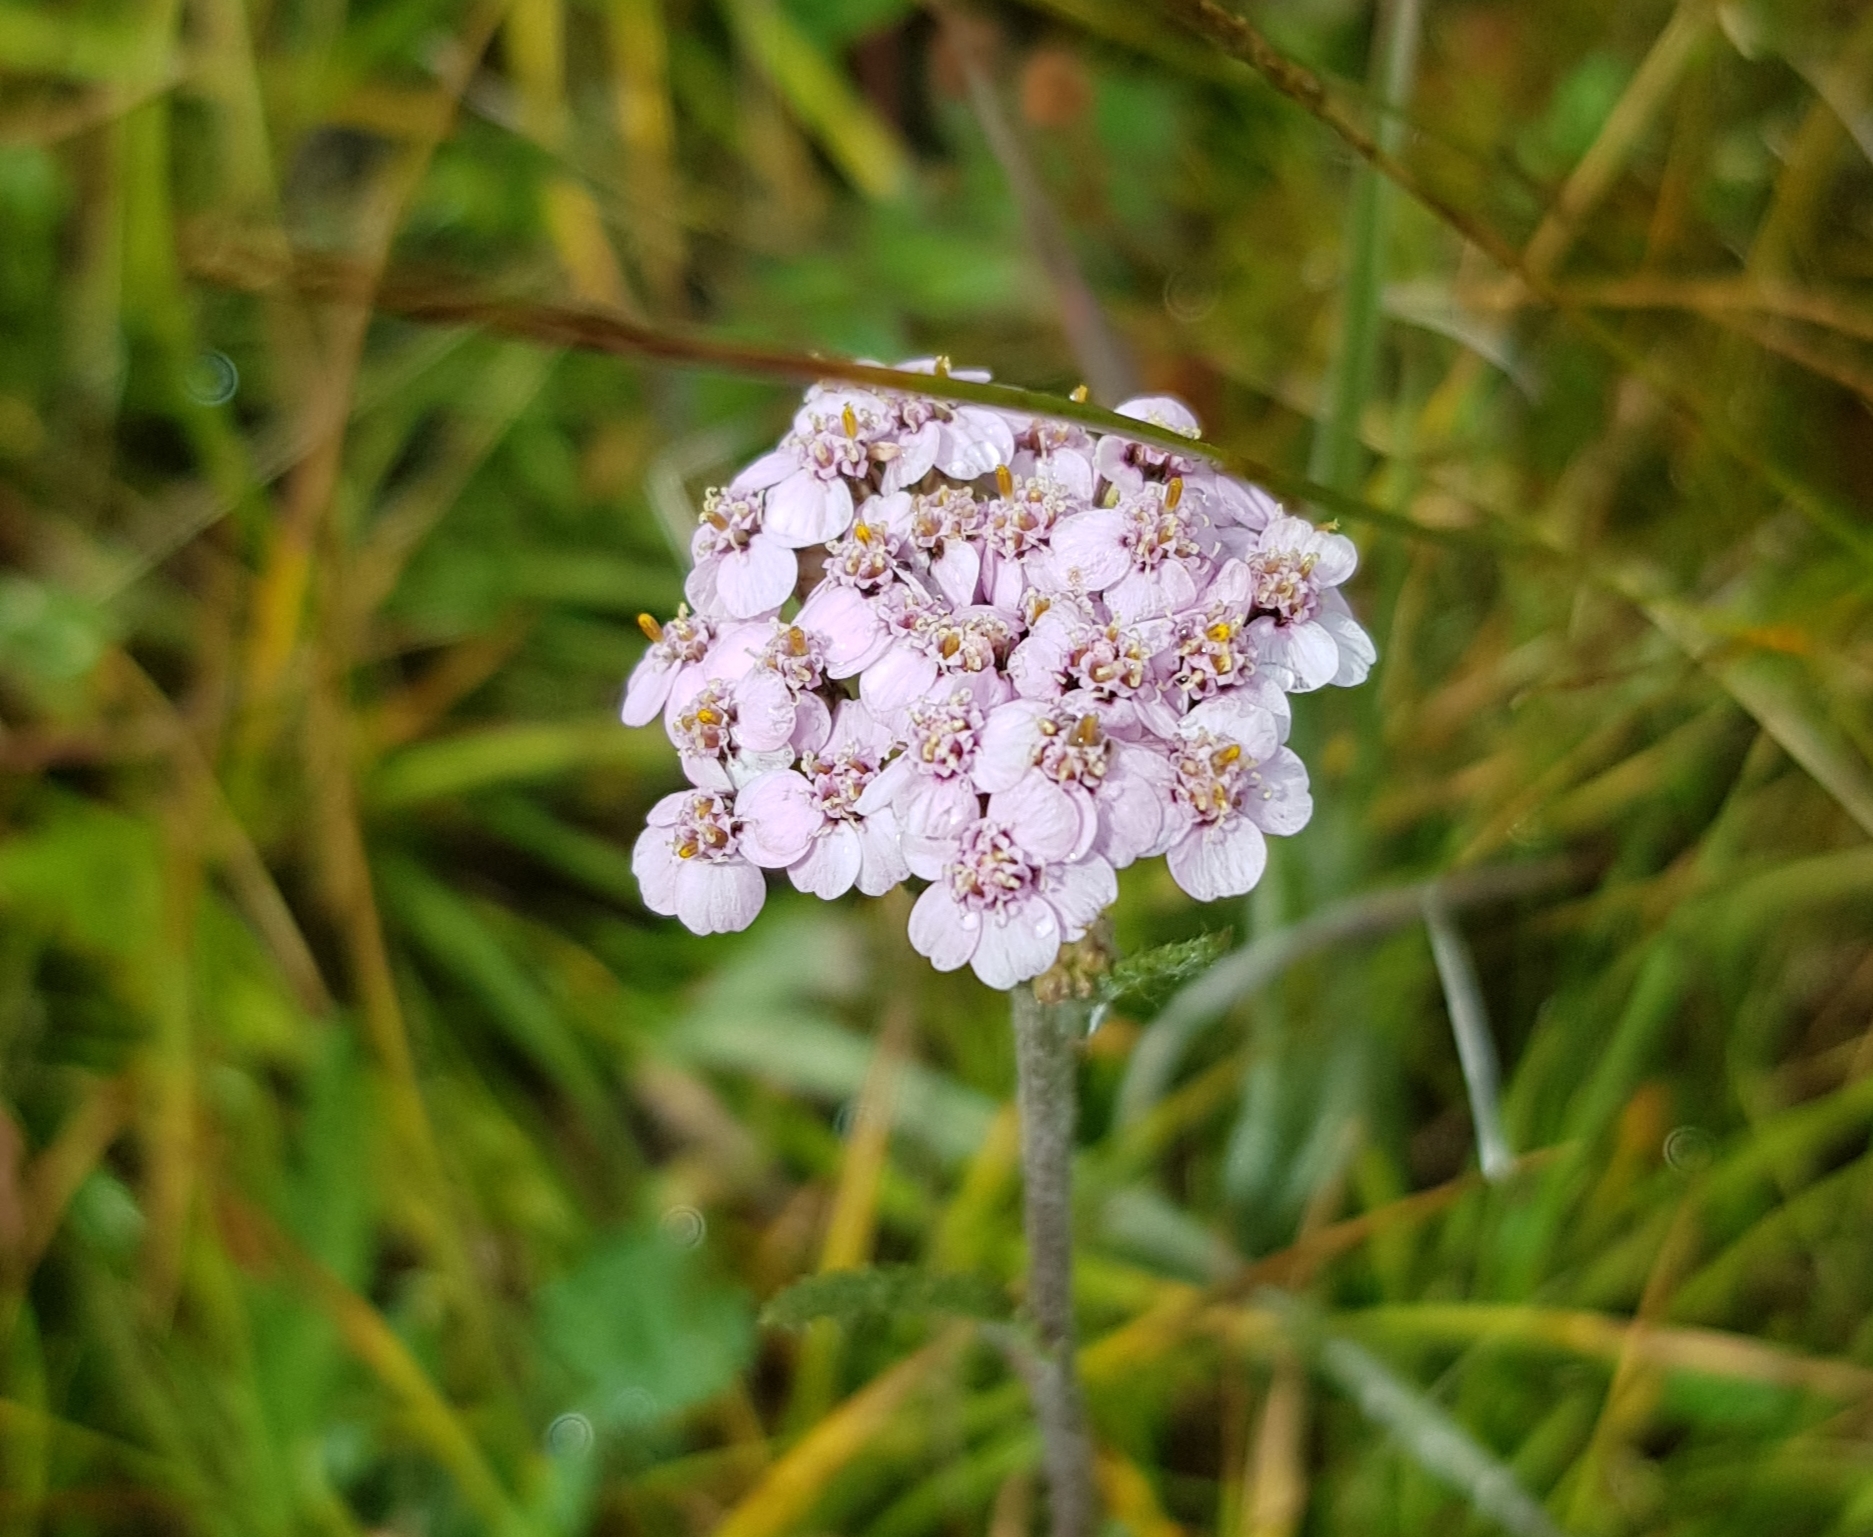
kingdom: Plantae
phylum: Tracheophyta
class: Magnoliopsida
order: Asterales
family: Asteraceae
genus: Achillea
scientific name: Achillea asiatica
